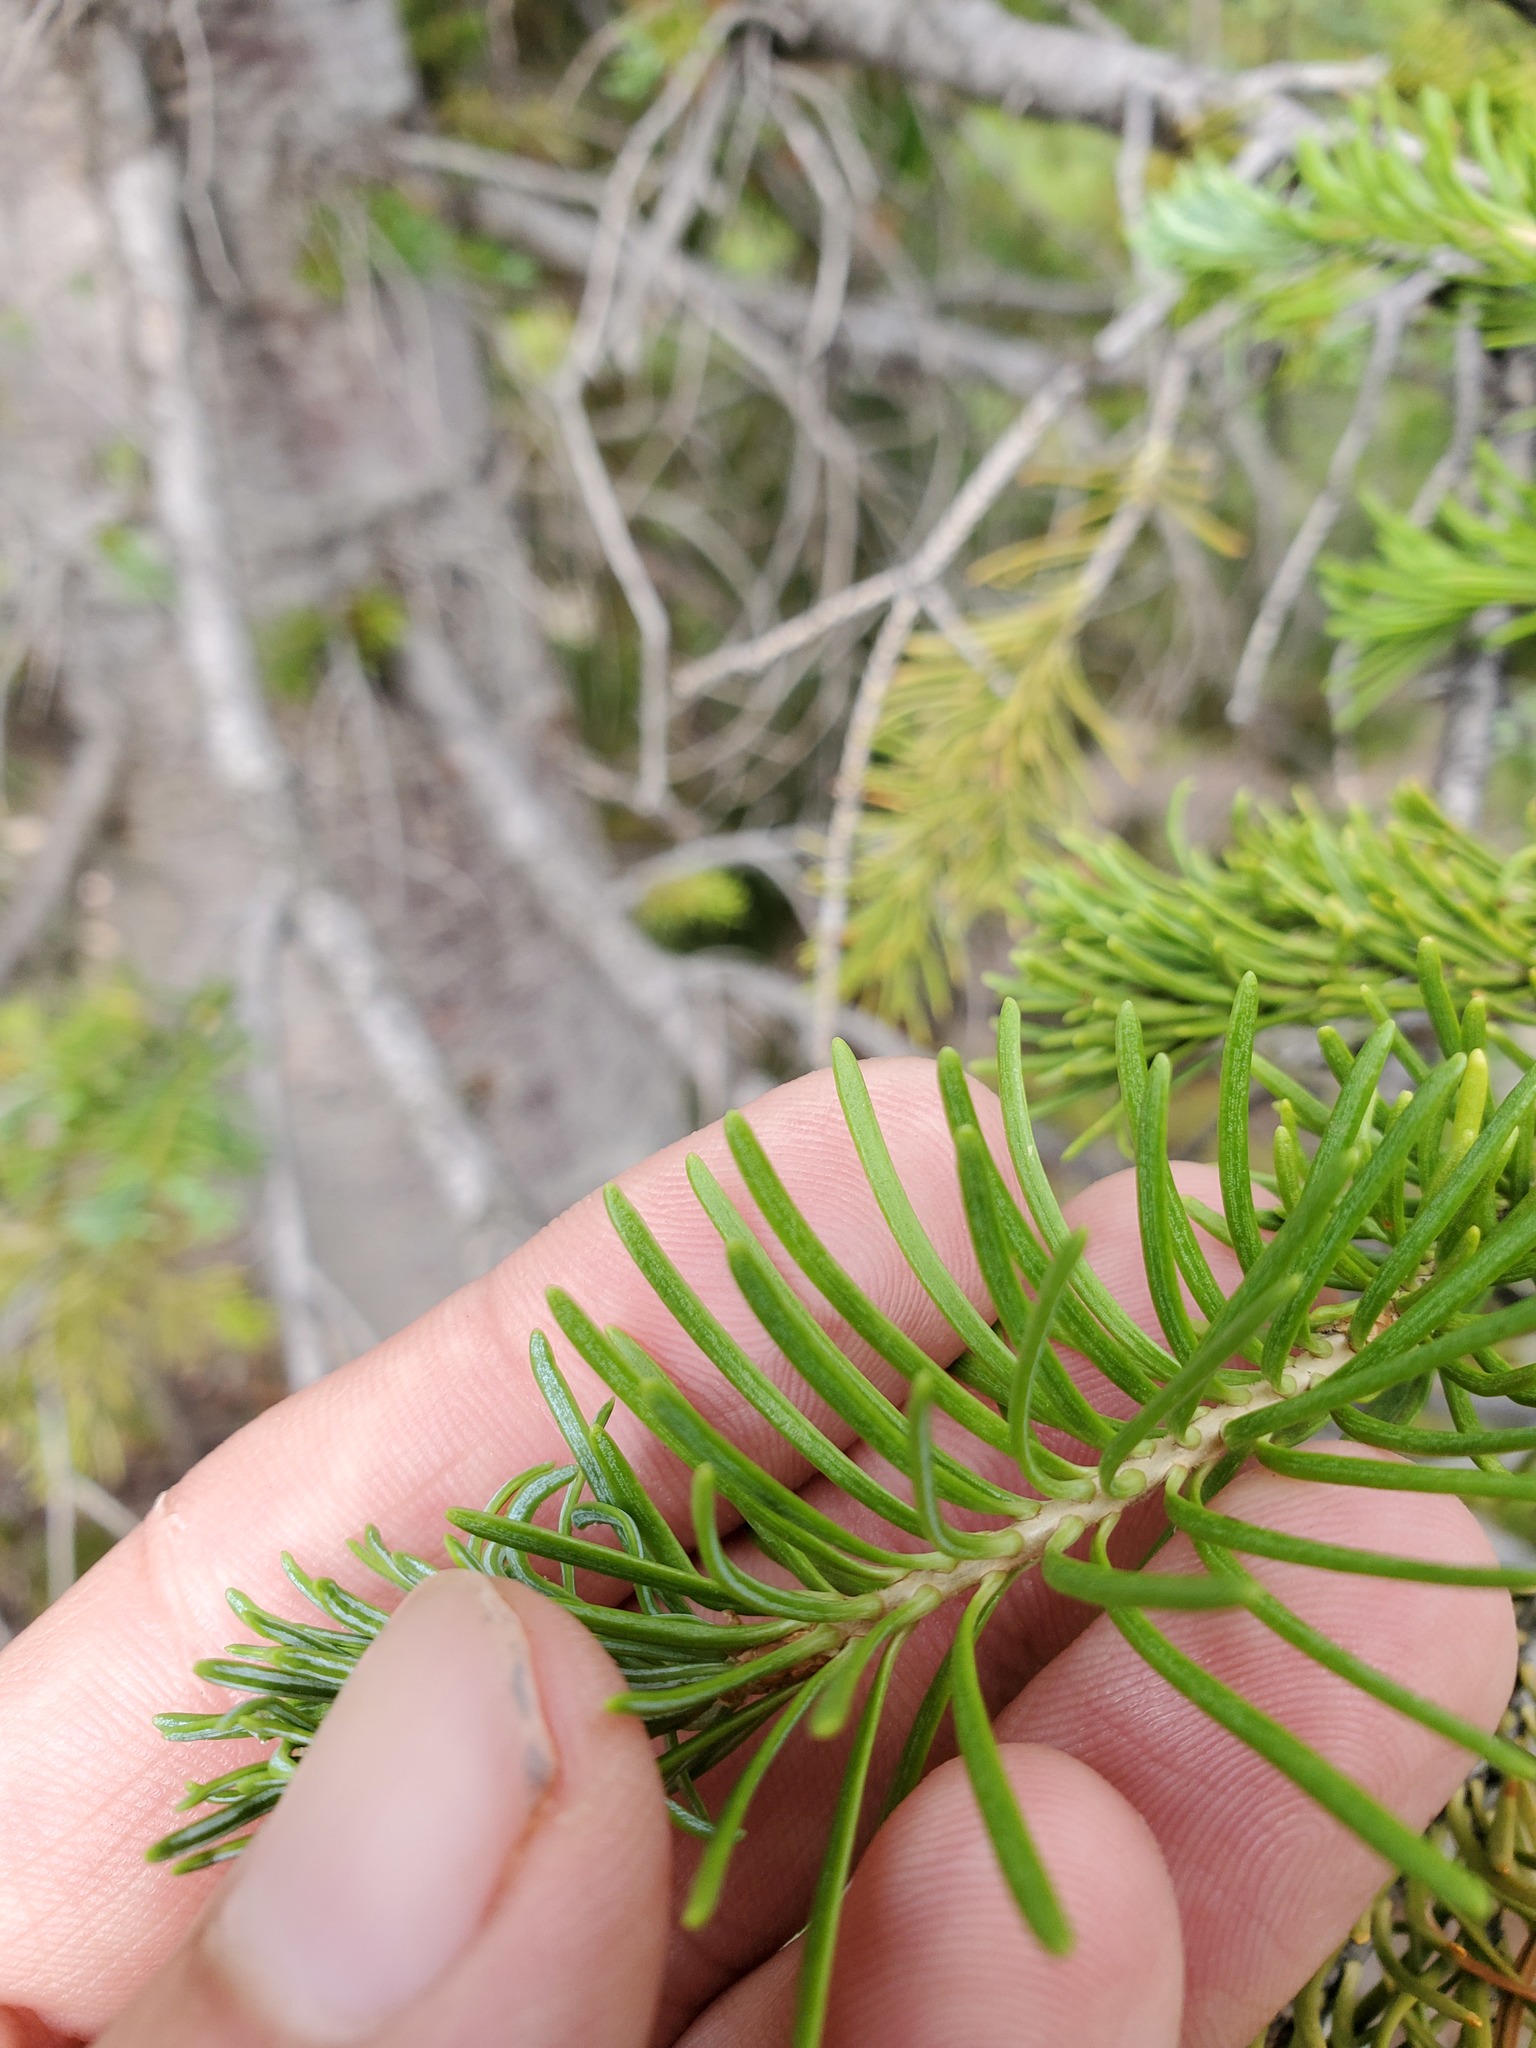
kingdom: Plantae
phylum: Tracheophyta
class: Pinopsida
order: Pinales
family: Pinaceae
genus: Abies
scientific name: Abies lasiocarpa
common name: Subalpine fir
